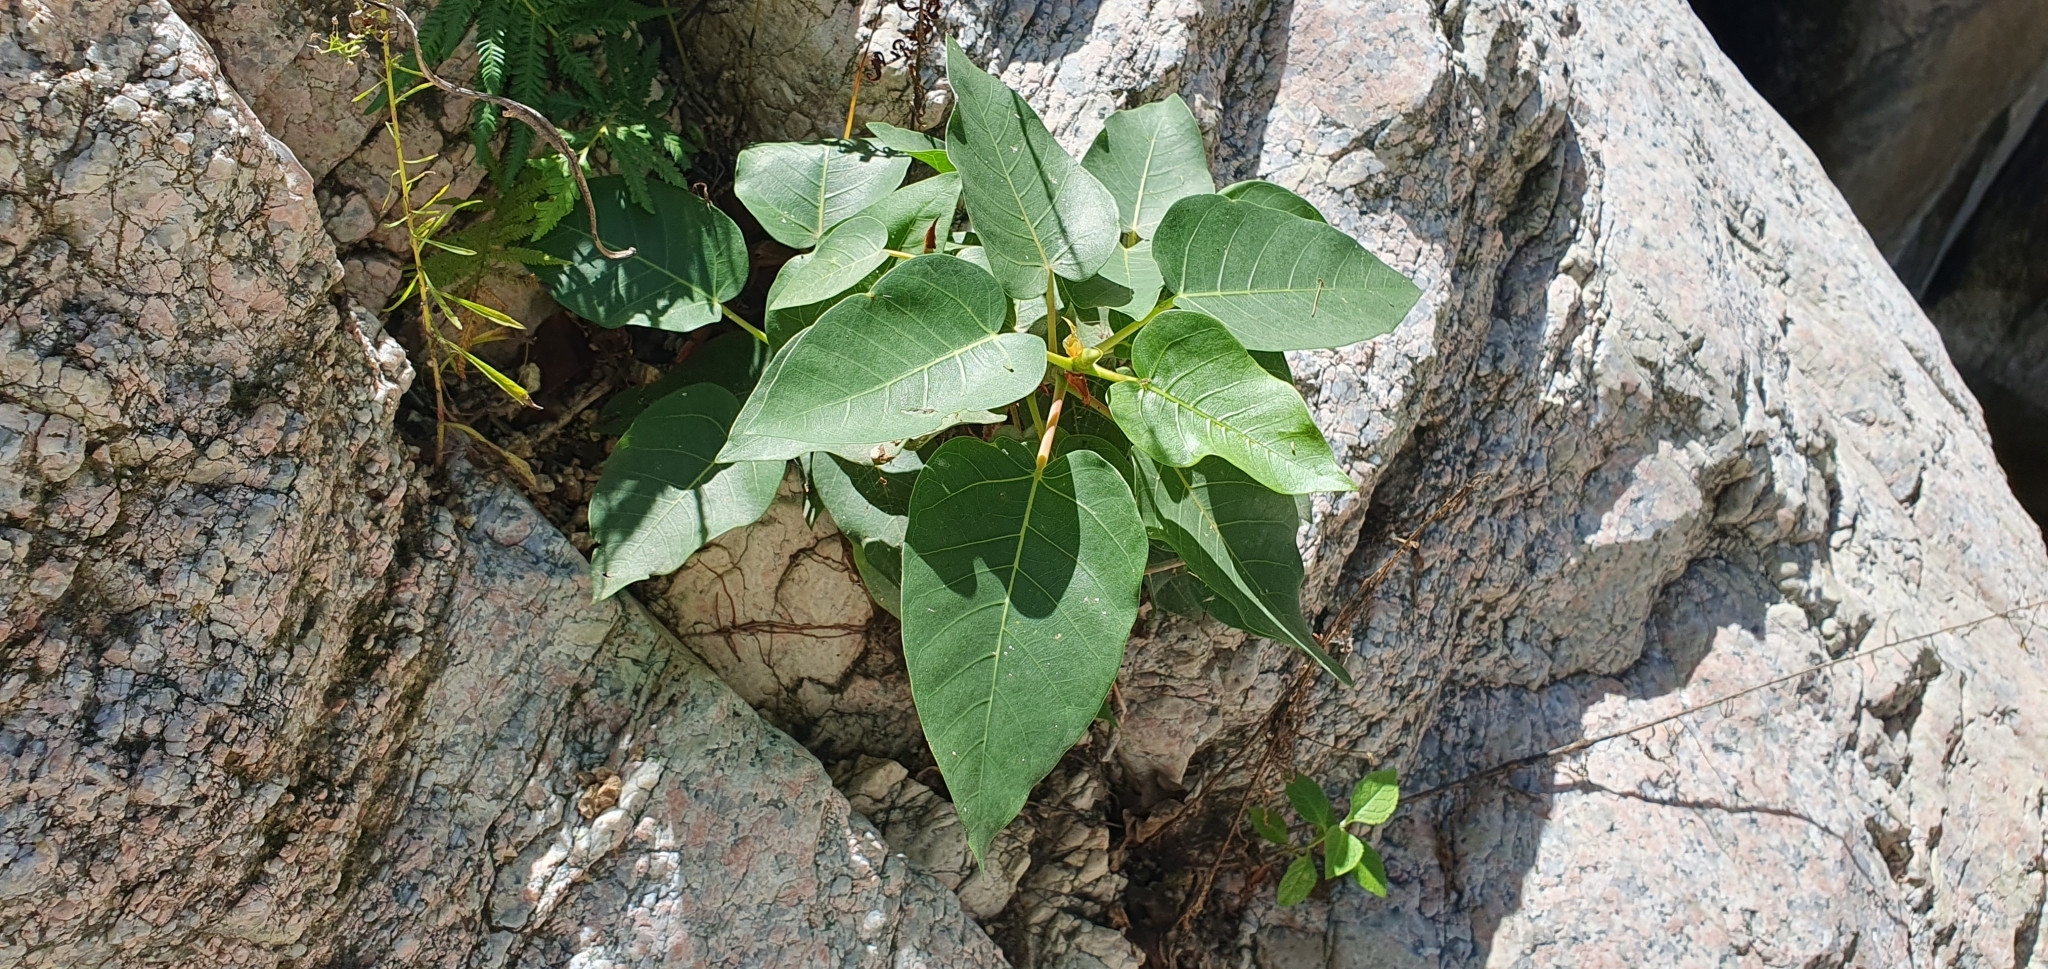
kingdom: Plantae
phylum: Tracheophyta
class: Magnoliopsida
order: Rosales
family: Moraceae
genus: Ficus
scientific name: Ficus petiolaris
